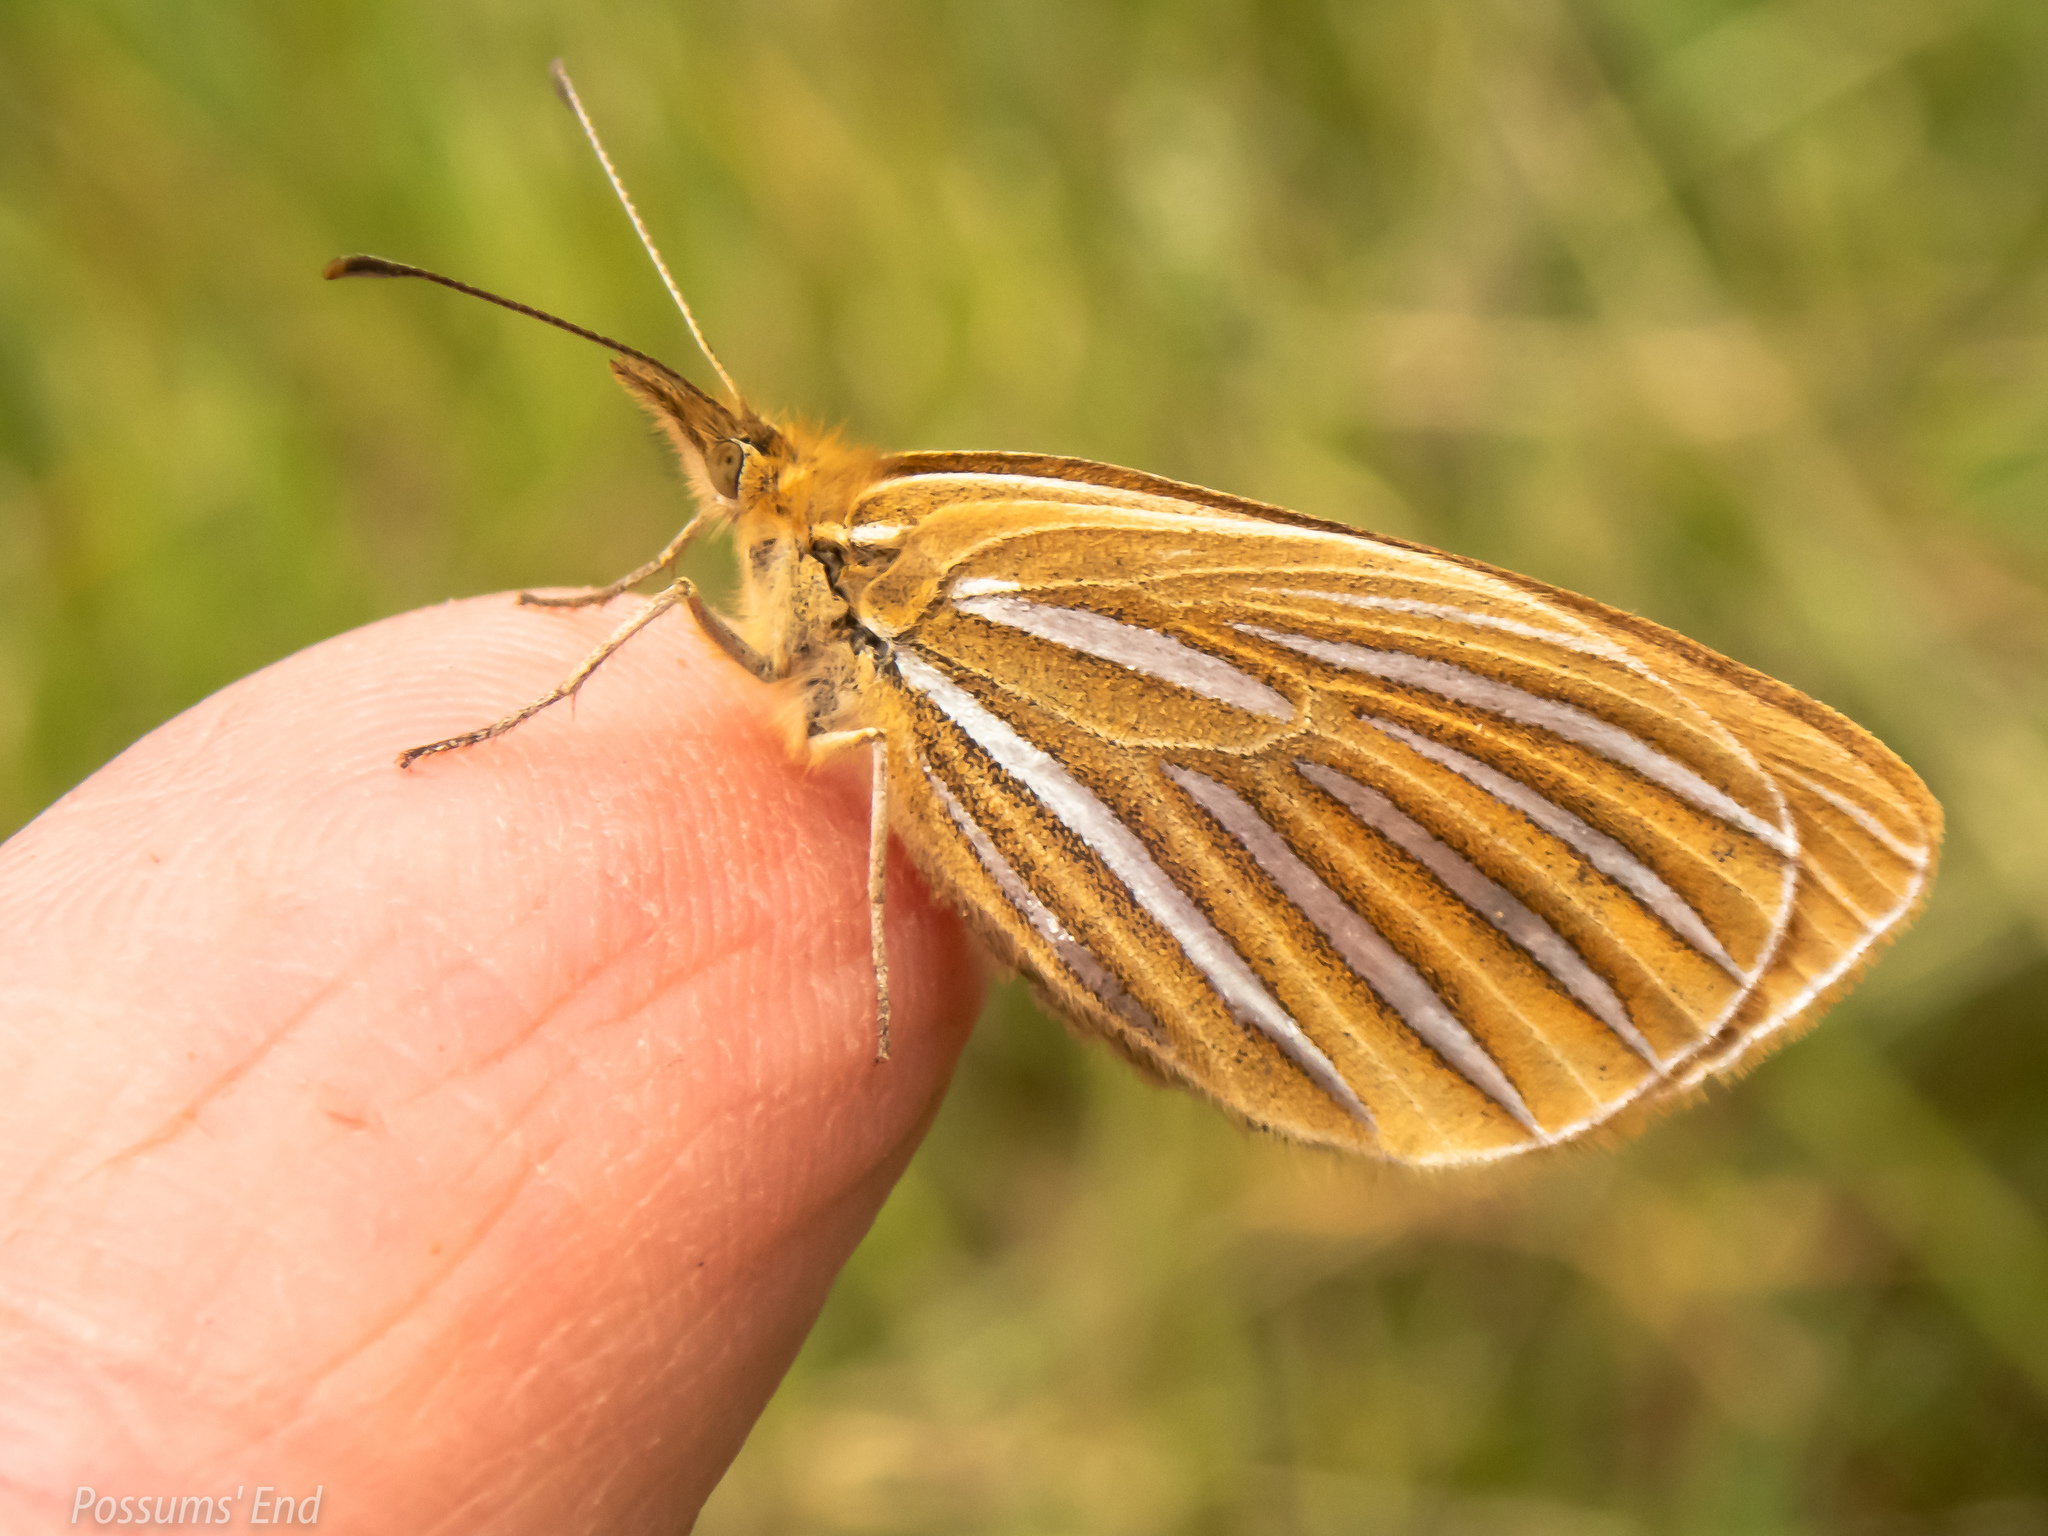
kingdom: Animalia
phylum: Arthropoda
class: Insecta
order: Lepidoptera
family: Nymphalidae
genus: Argyrophenga
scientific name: Argyrophenga antipodum
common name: Common tussock butterfly
